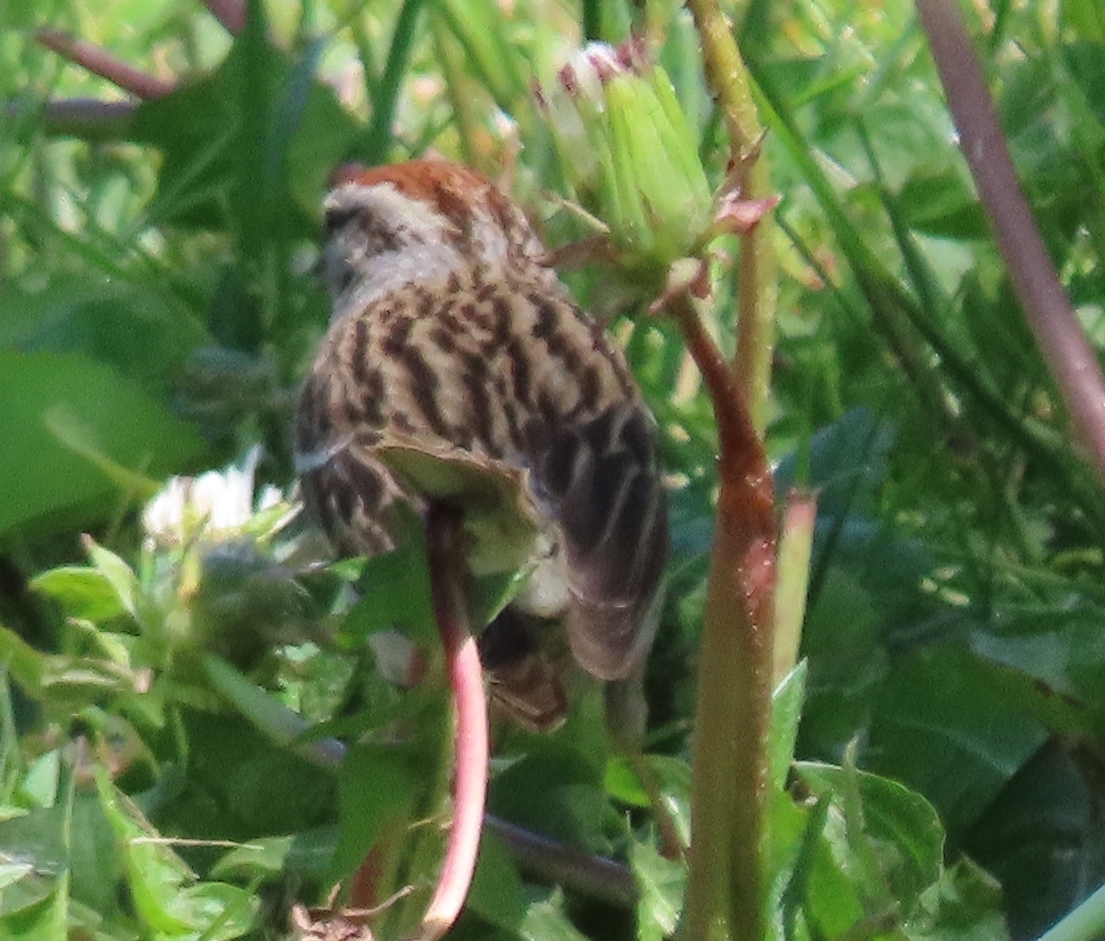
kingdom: Animalia
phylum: Chordata
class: Aves
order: Passeriformes
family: Passerellidae
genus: Spizella
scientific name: Spizella passerina
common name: Chipping sparrow
